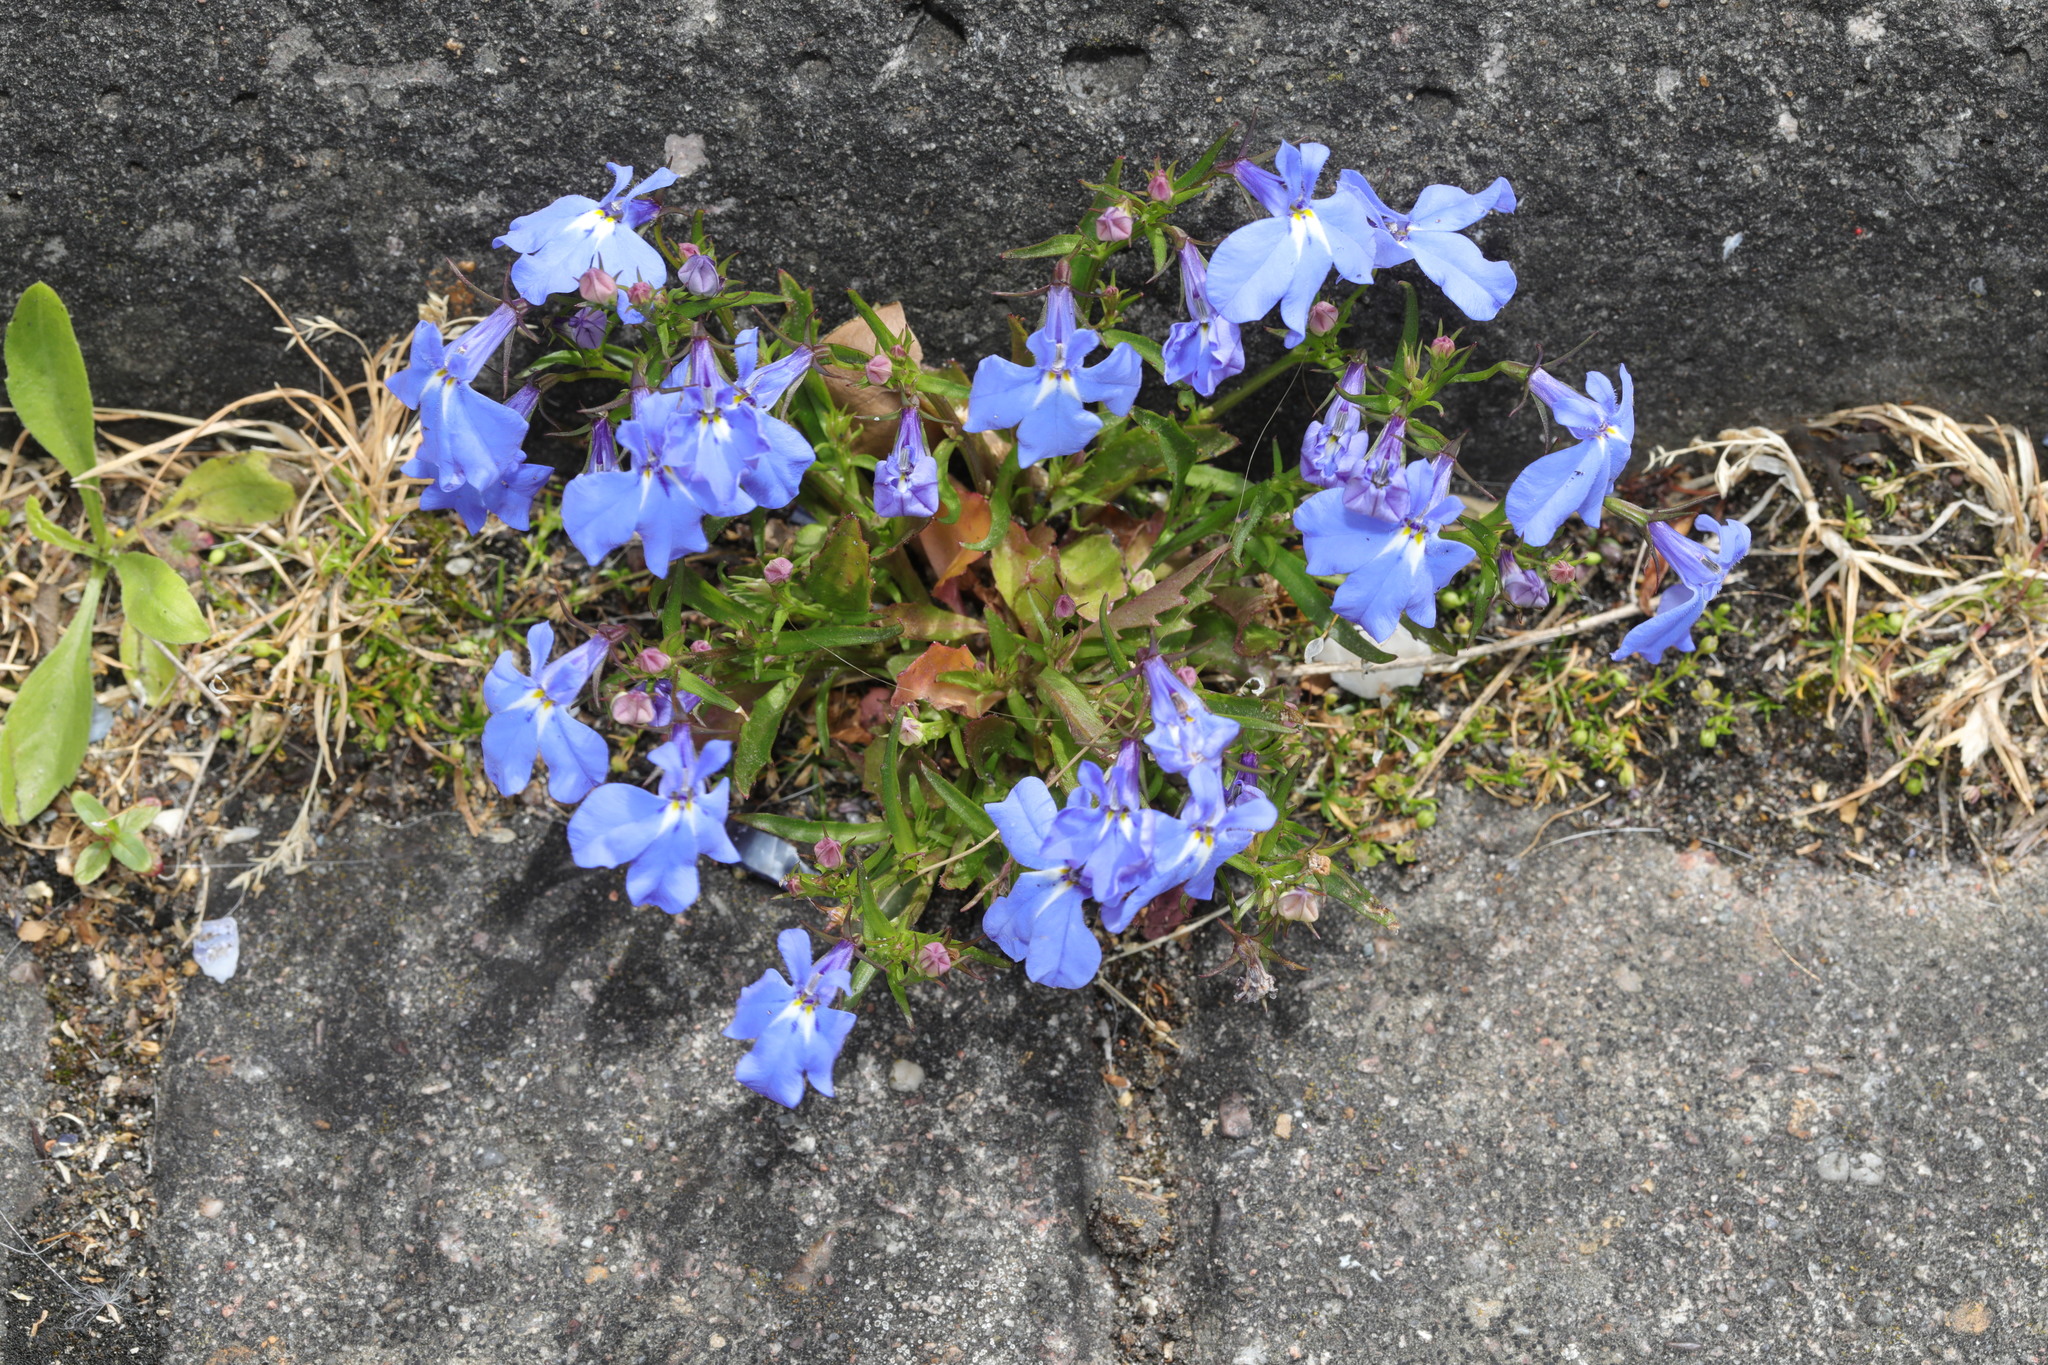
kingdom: Plantae
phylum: Tracheophyta
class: Magnoliopsida
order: Asterales
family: Campanulaceae
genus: Lobelia
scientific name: Lobelia erinus
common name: Edging lobelia
